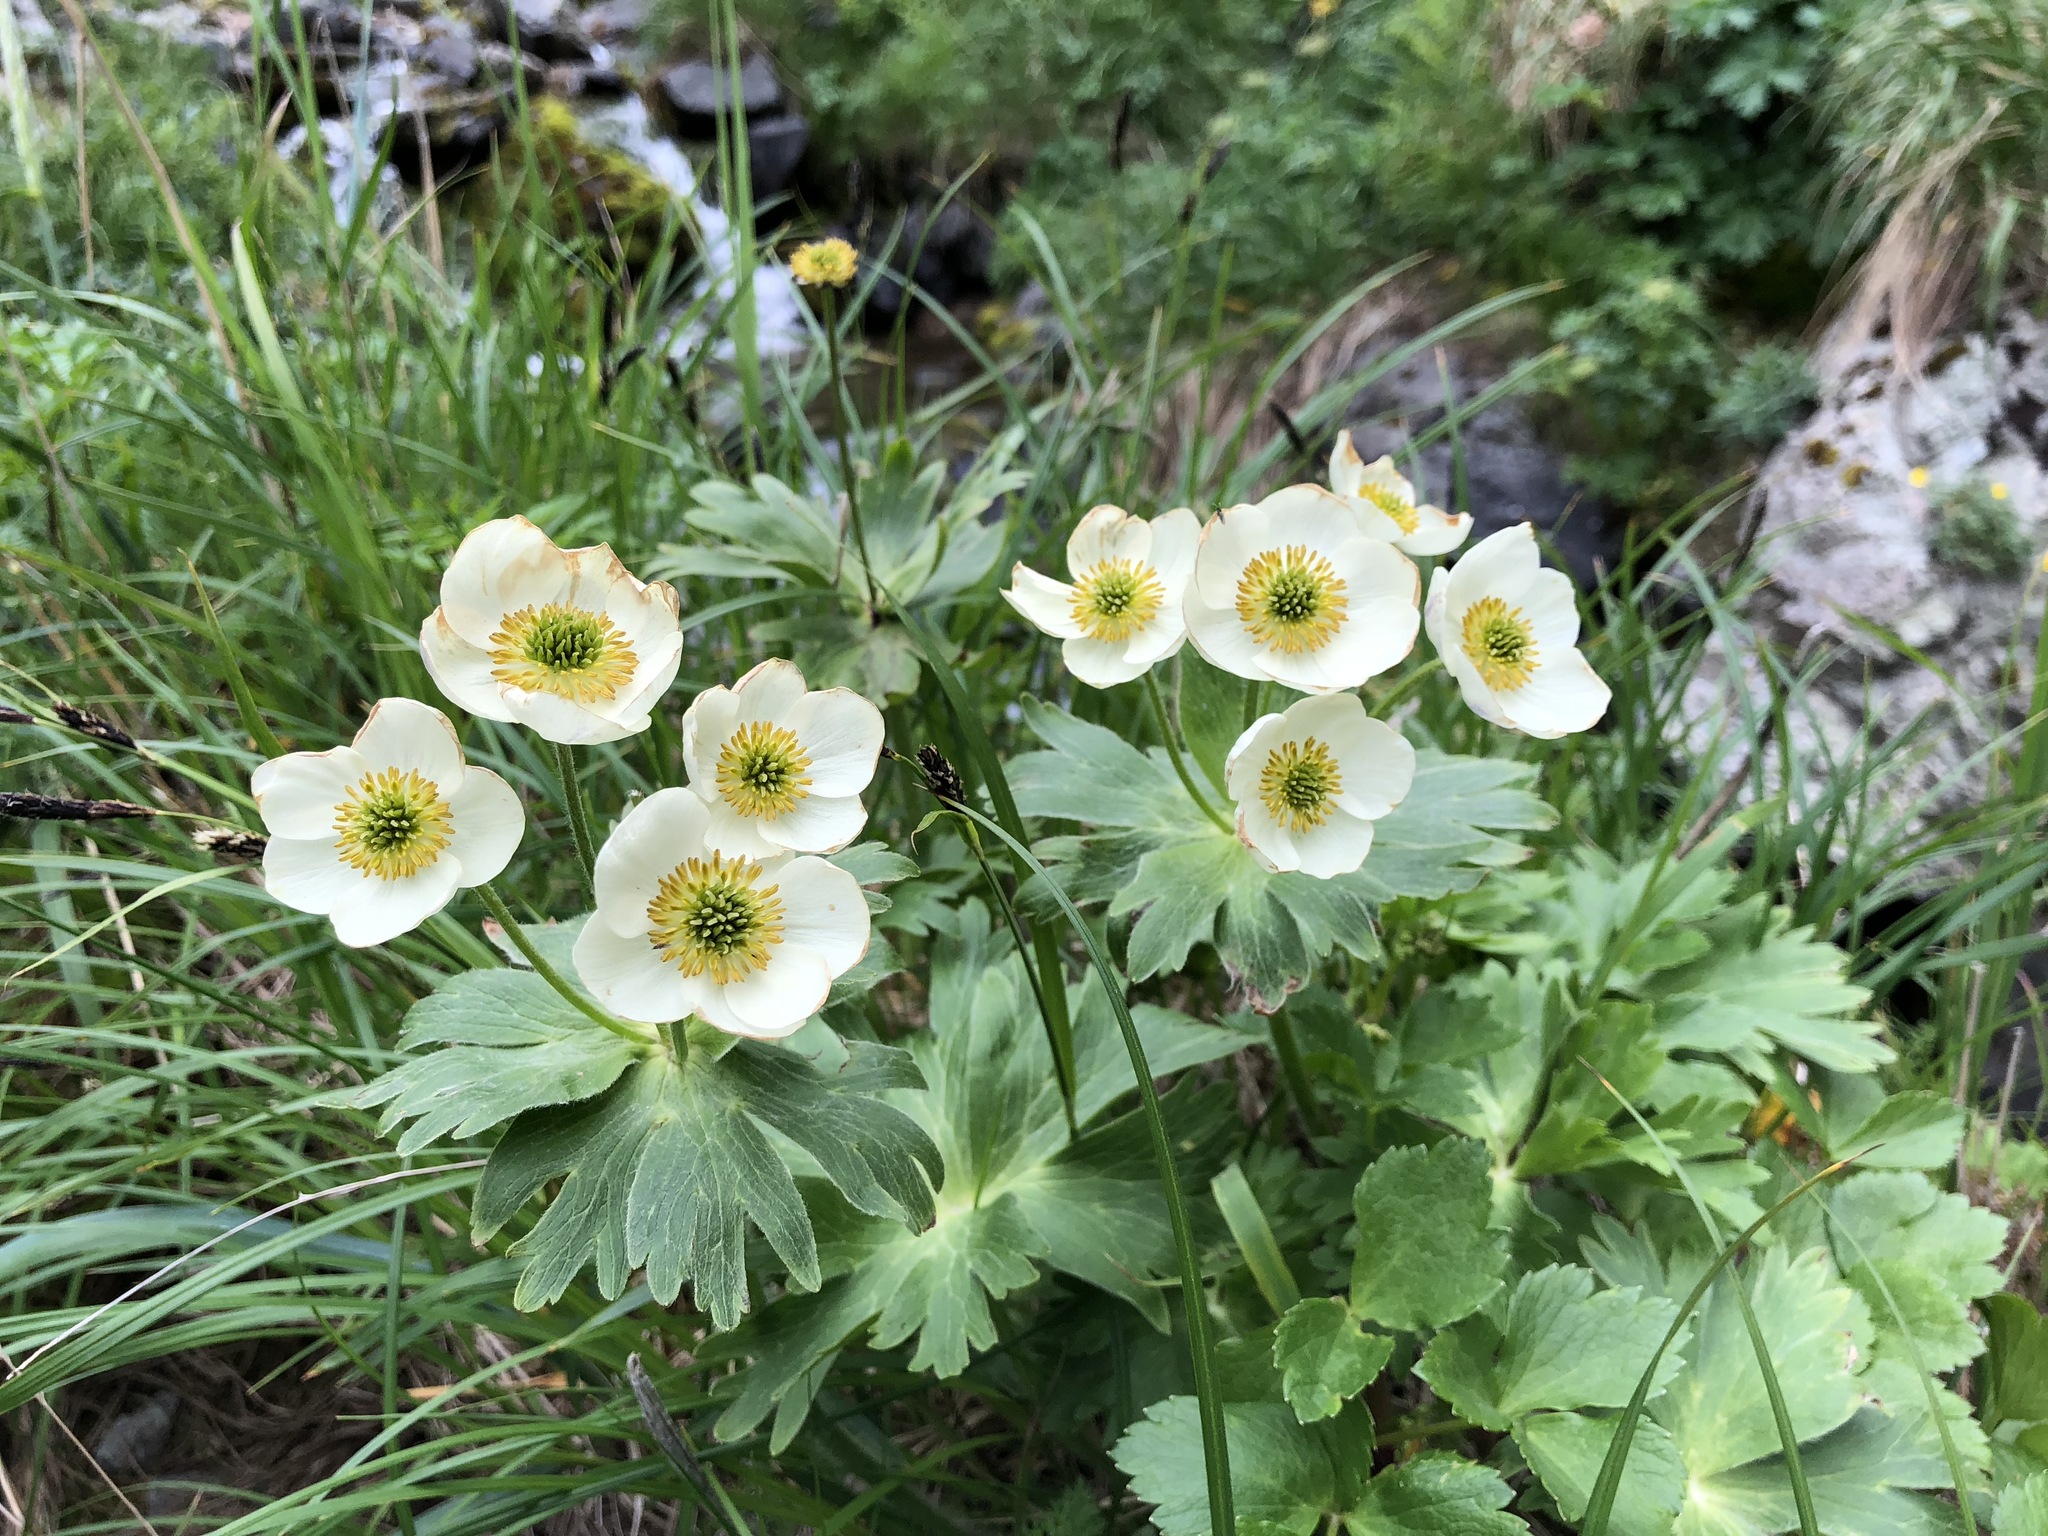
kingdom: Plantae
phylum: Tracheophyta
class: Magnoliopsida
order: Ranunculales
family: Ranunculaceae
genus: Anemonastrum
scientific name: Anemonastrum narcissiflorum
